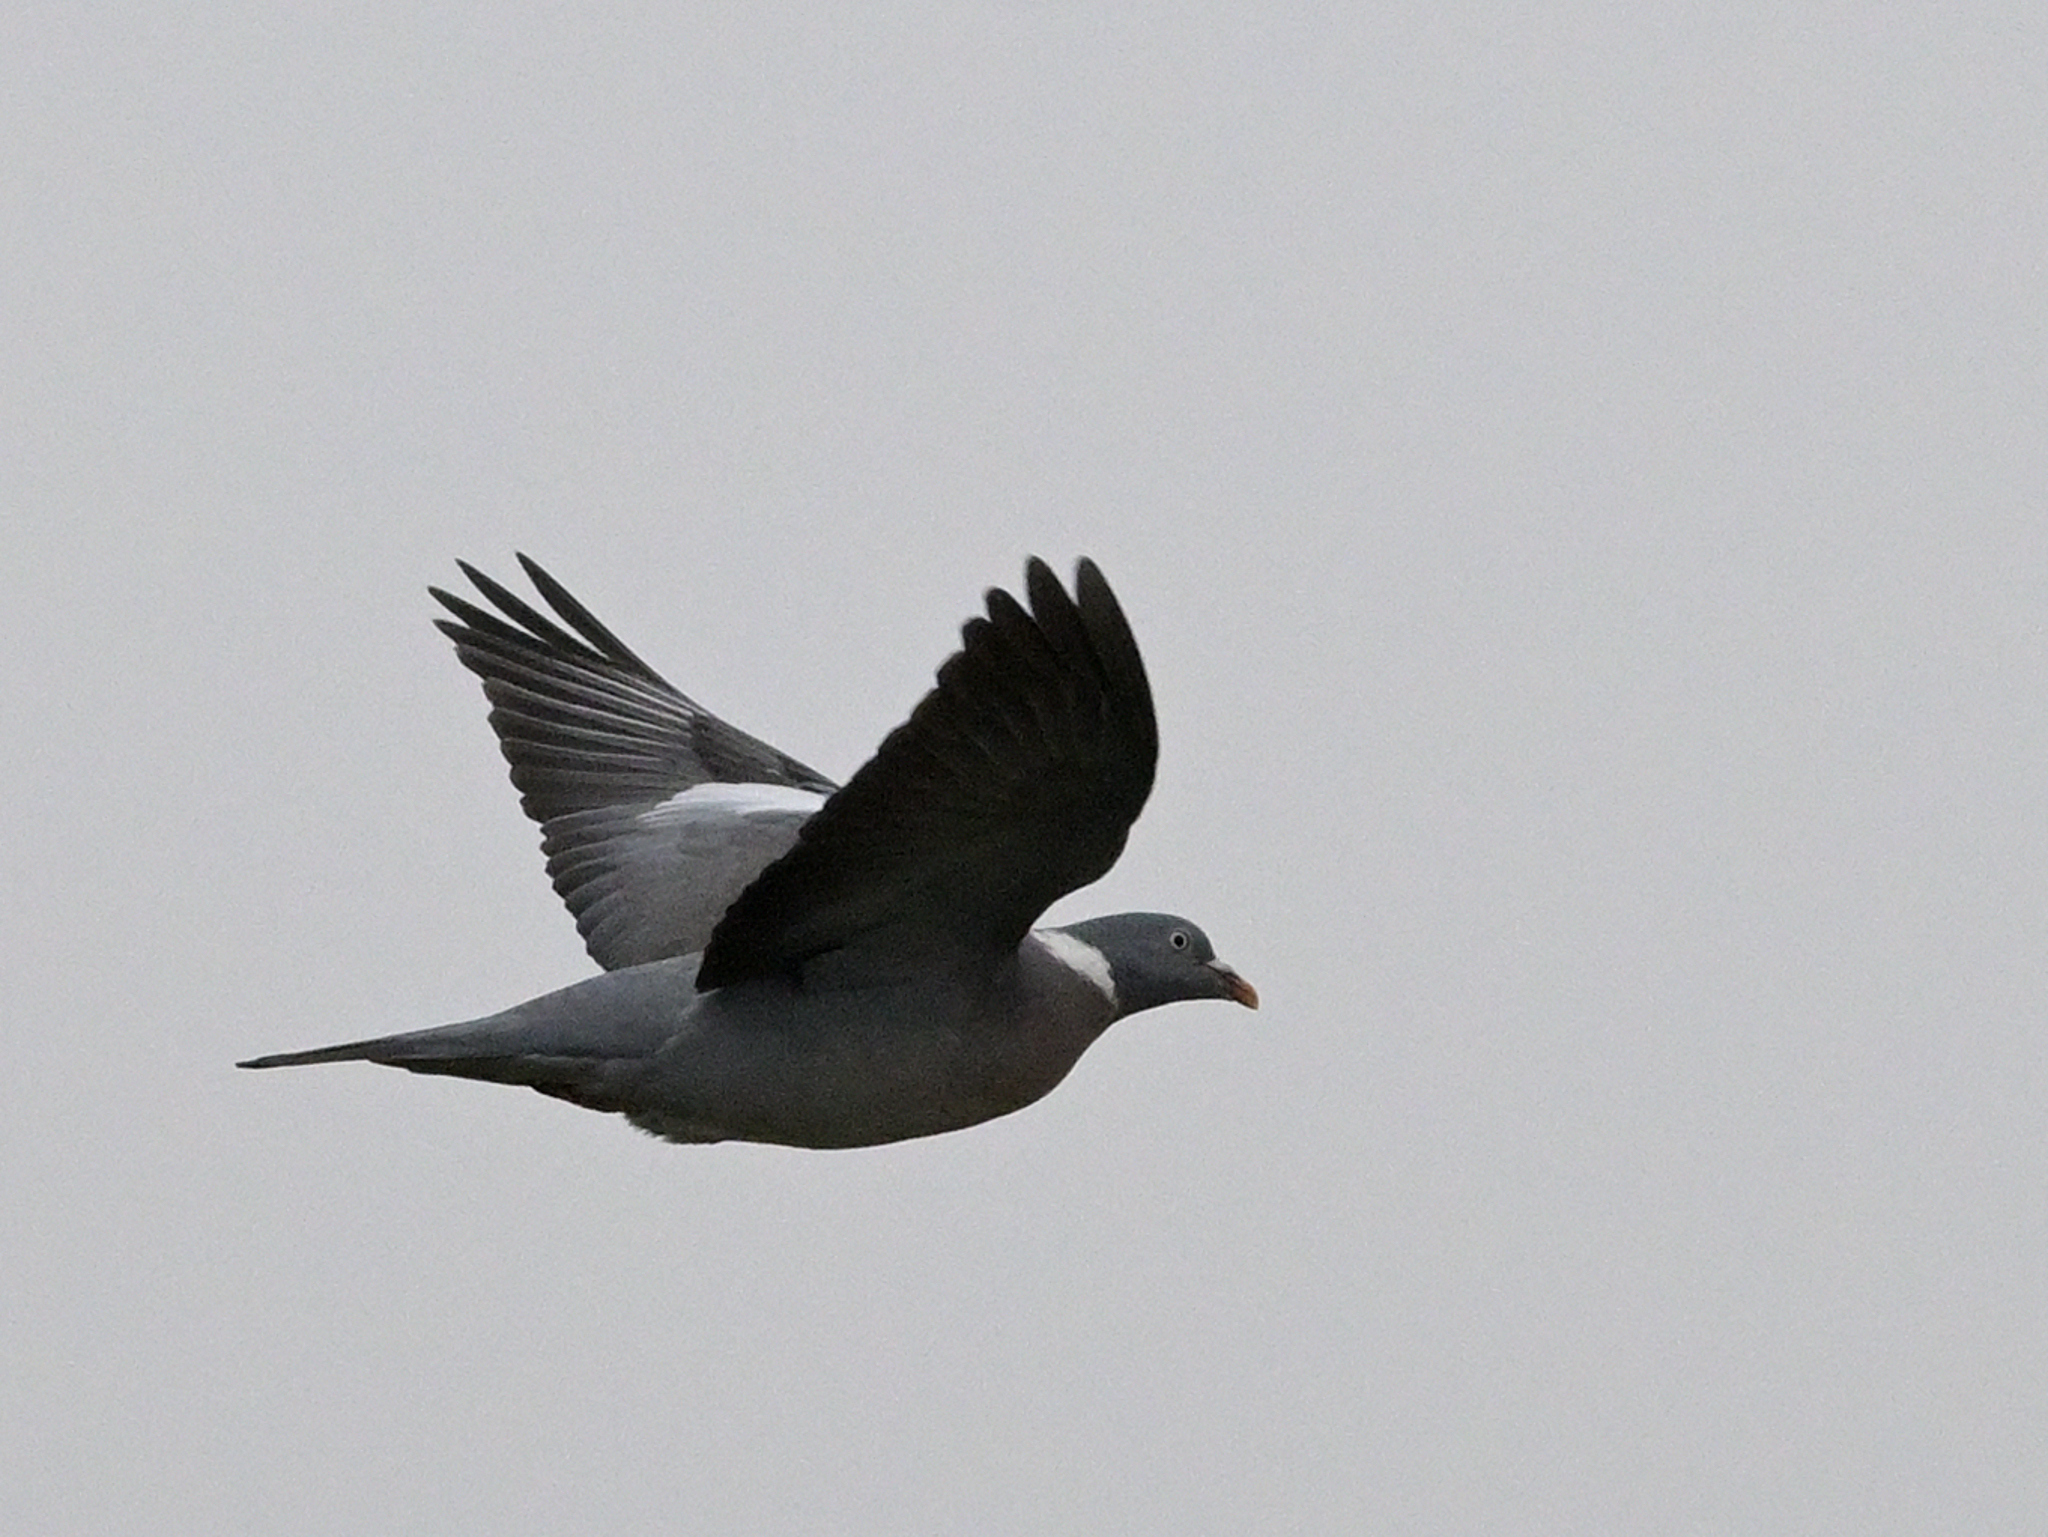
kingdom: Animalia
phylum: Chordata
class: Aves
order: Columbiformes
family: Columbidae
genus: Columba
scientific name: Columba palumbus
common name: Common wood pigeon
